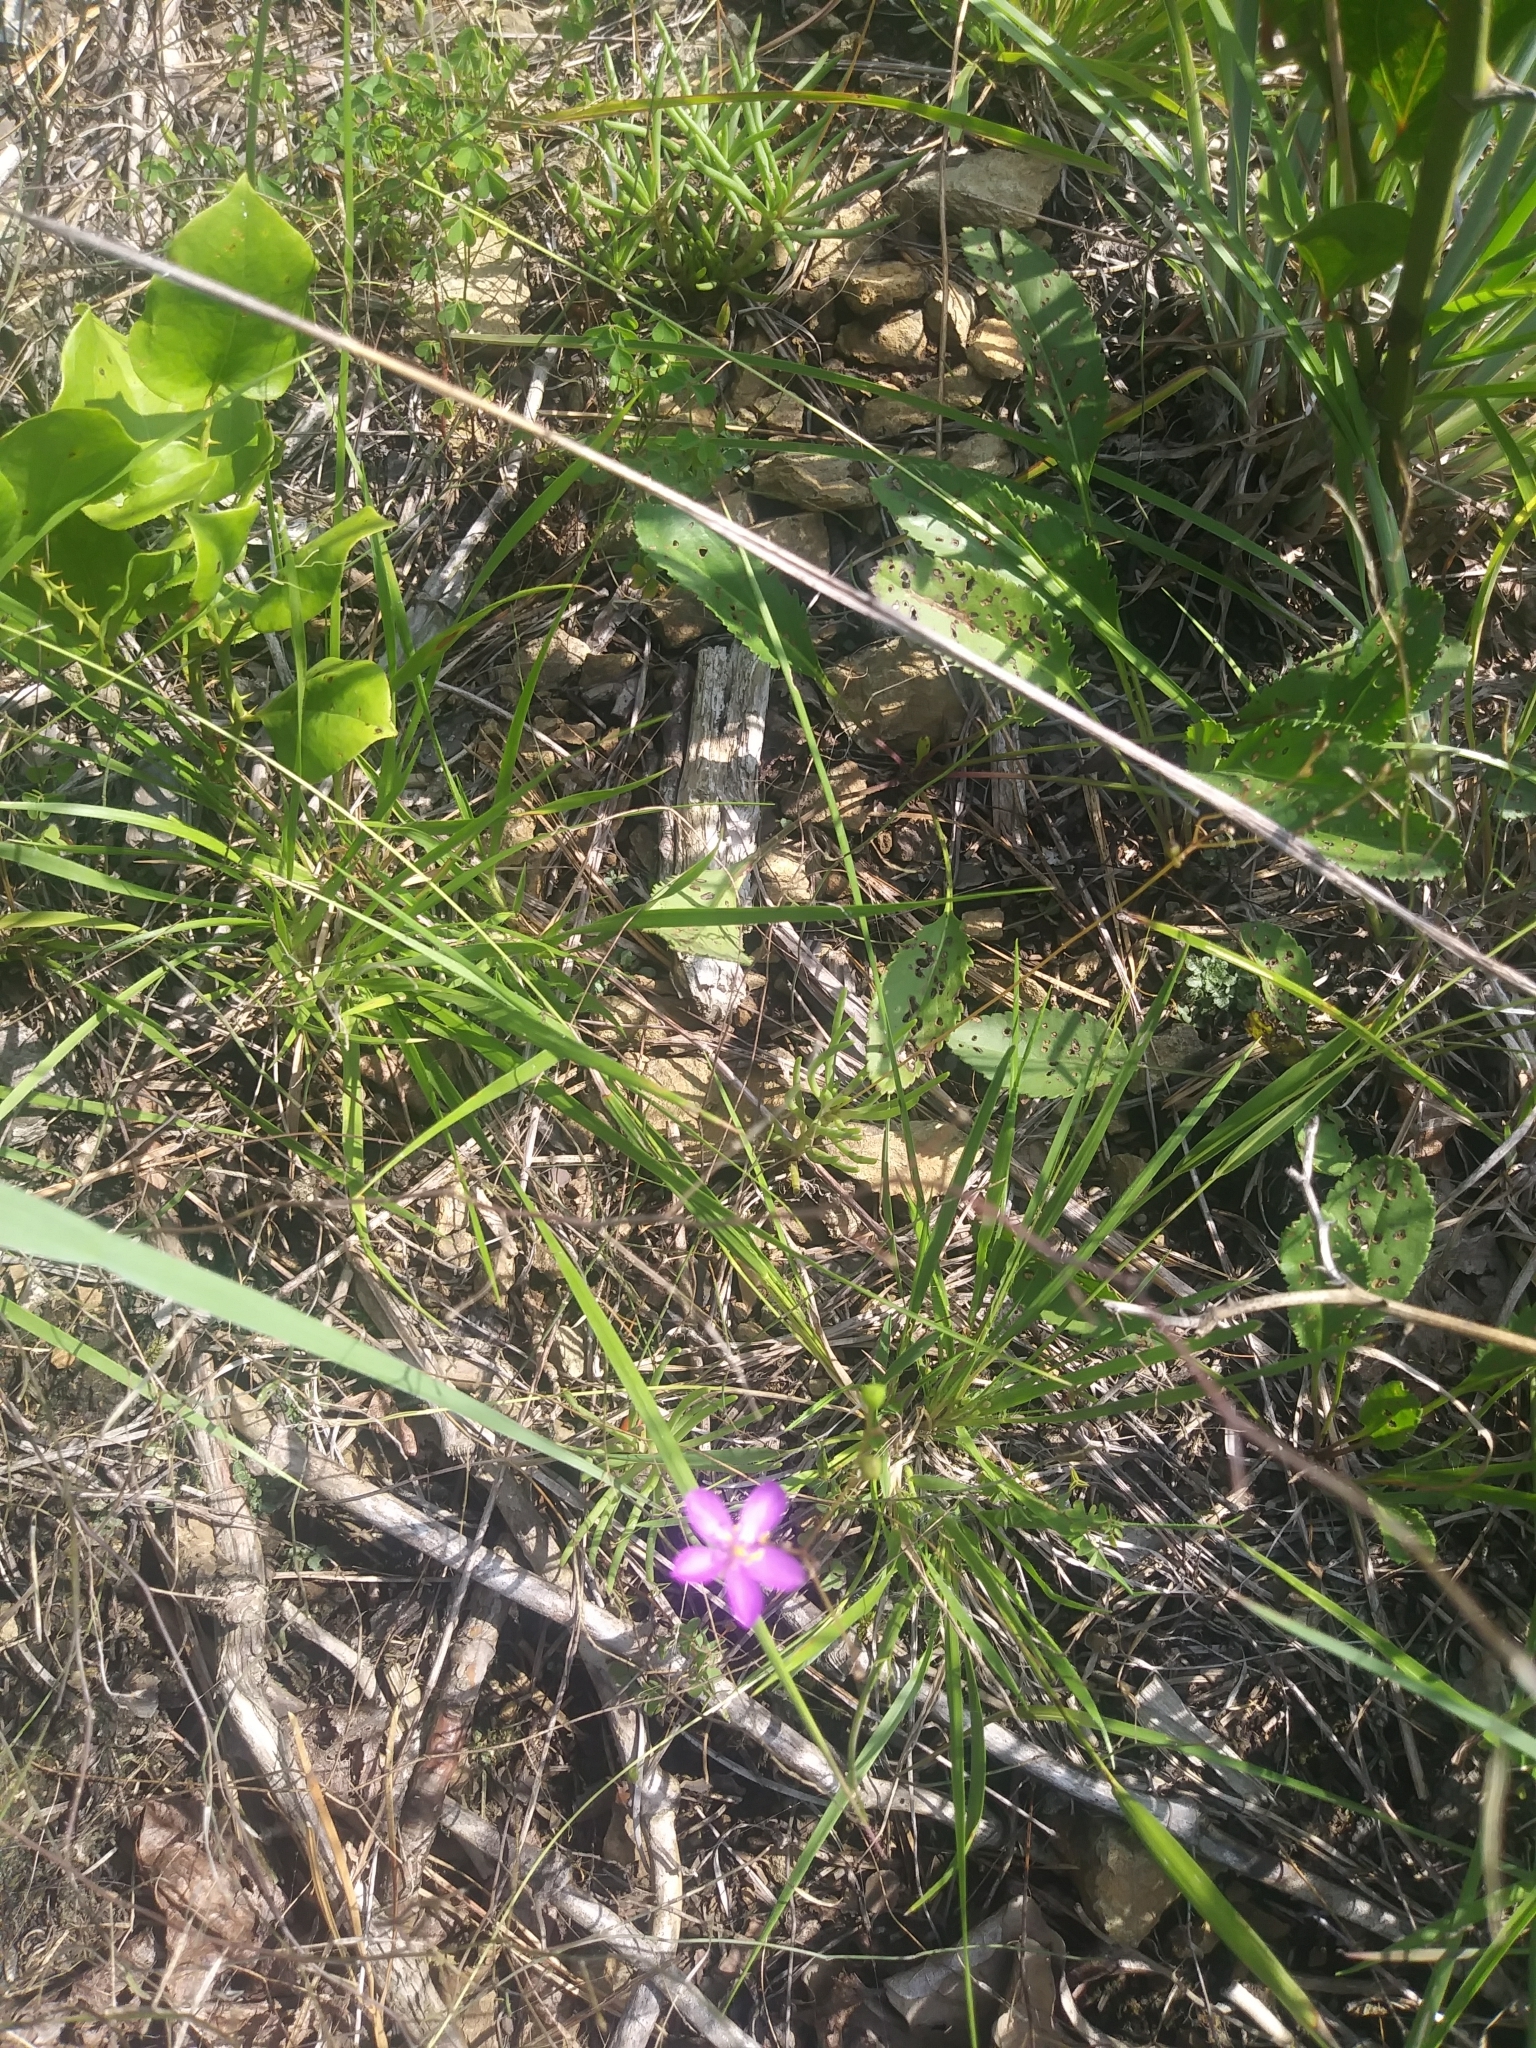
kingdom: Plantae
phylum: Tracheophyta
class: Magnoliopsida
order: Caryophyllales
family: Montiaceae
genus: Phemeranthus
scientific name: Phemeranthus teretifolius
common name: Quill fameflower
